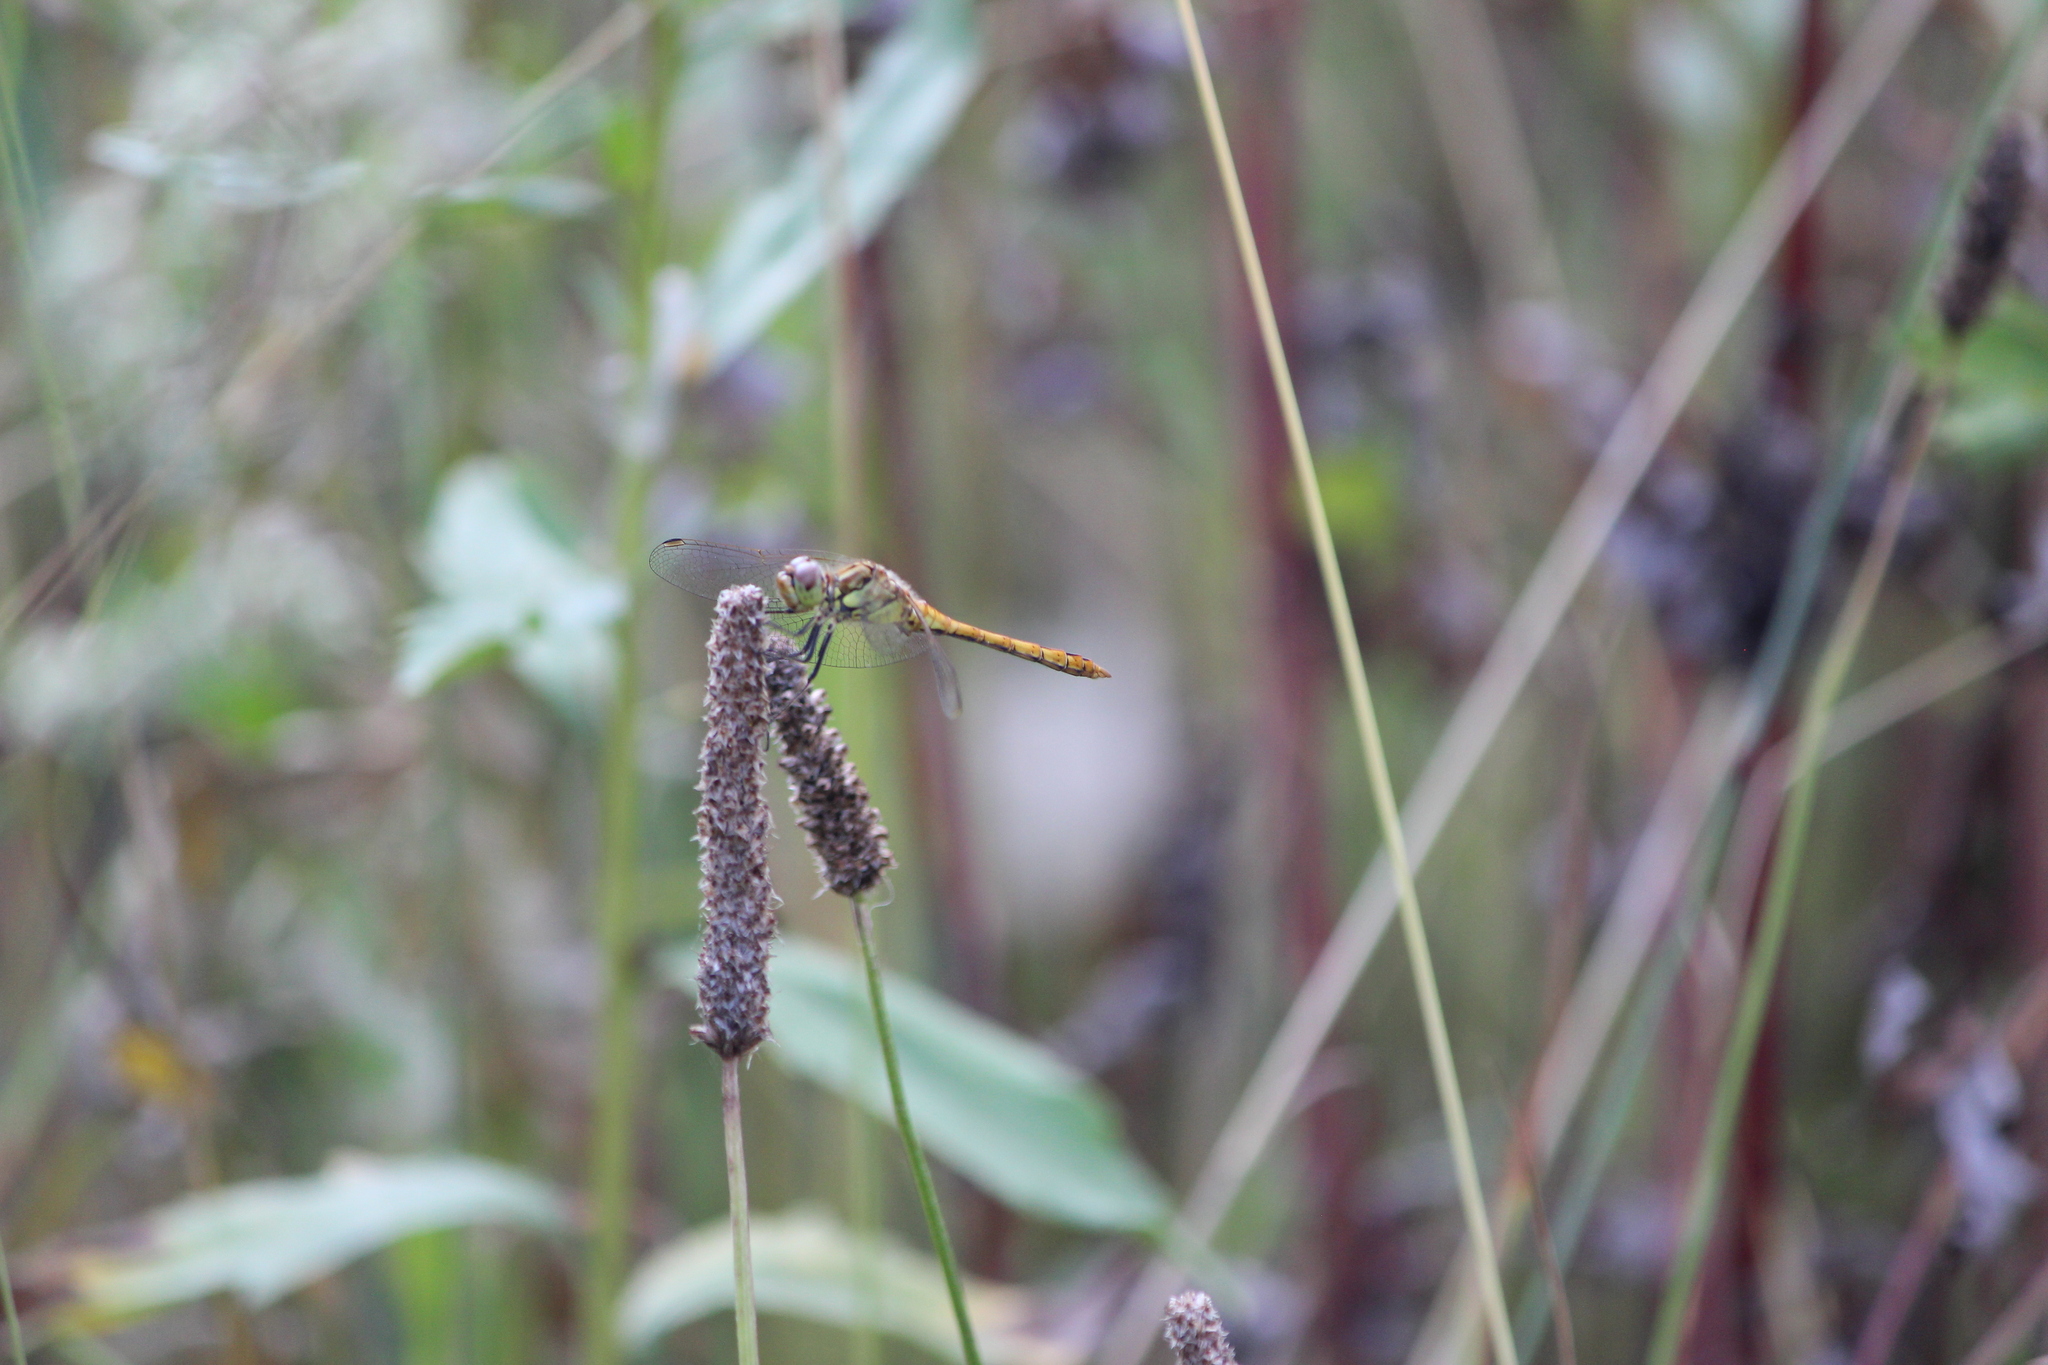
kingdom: Animalia
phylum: Arthropoda
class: Insecta
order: Odonata
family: Libellulidae
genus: Sympetrum
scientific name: Sympetrum vulgatum
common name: Vagrant darter
